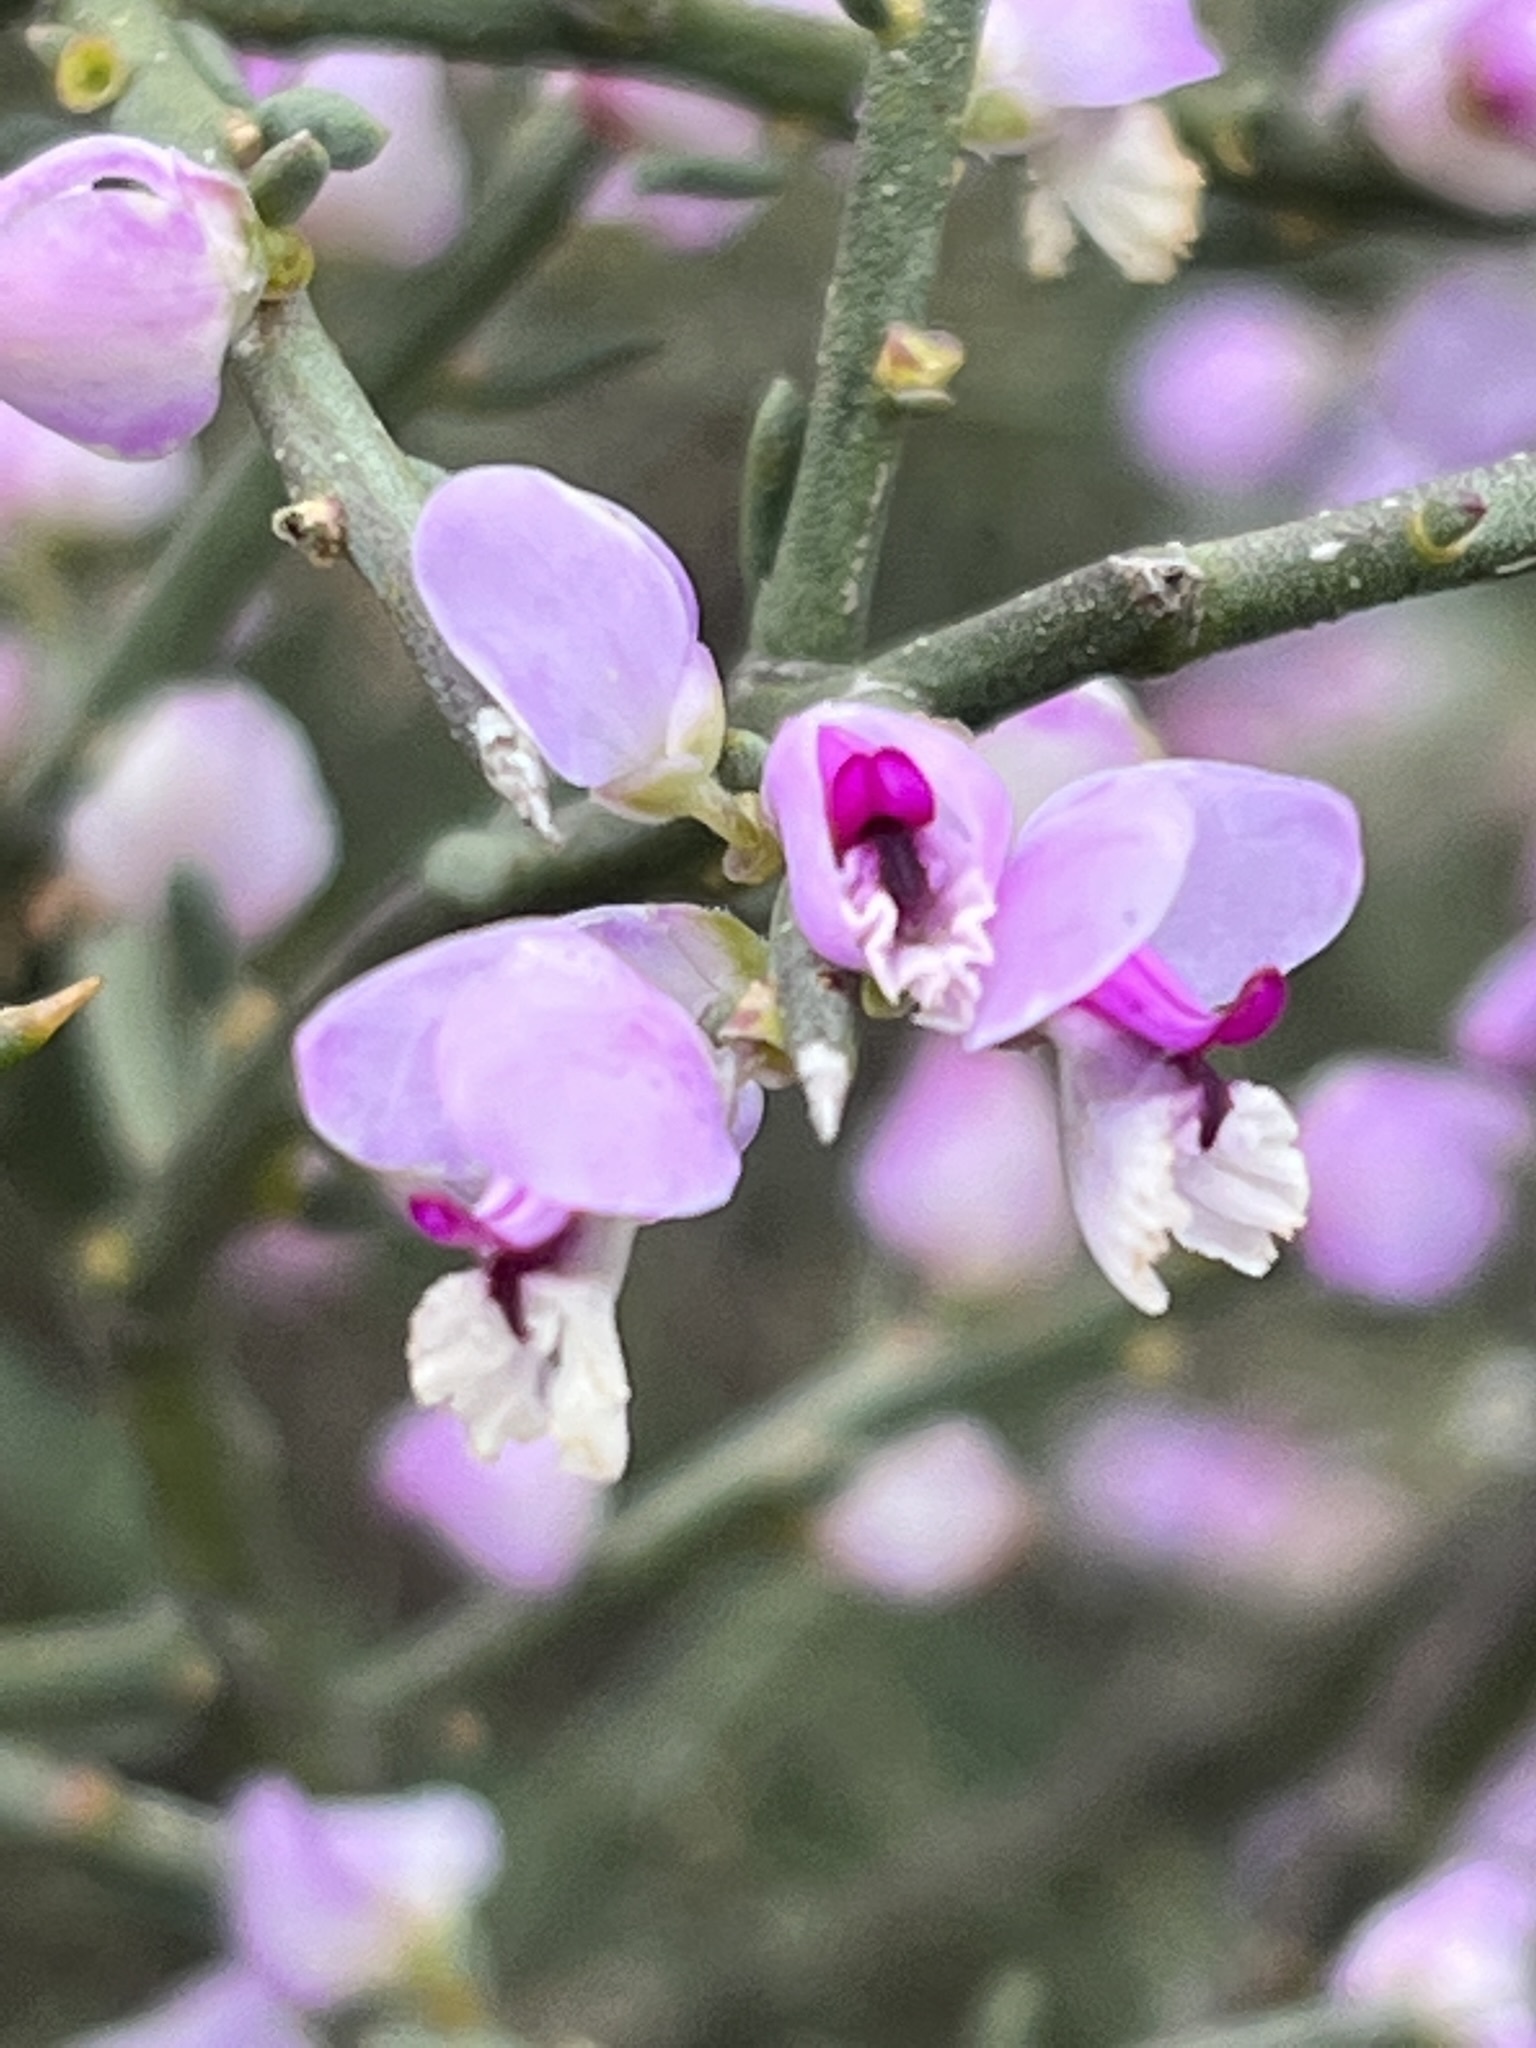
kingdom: Plantae
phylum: Tracheophyta
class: Magnoliopsida
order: Fabales
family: Polygalaceae
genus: Muraltia
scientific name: Muraltia spinosa
